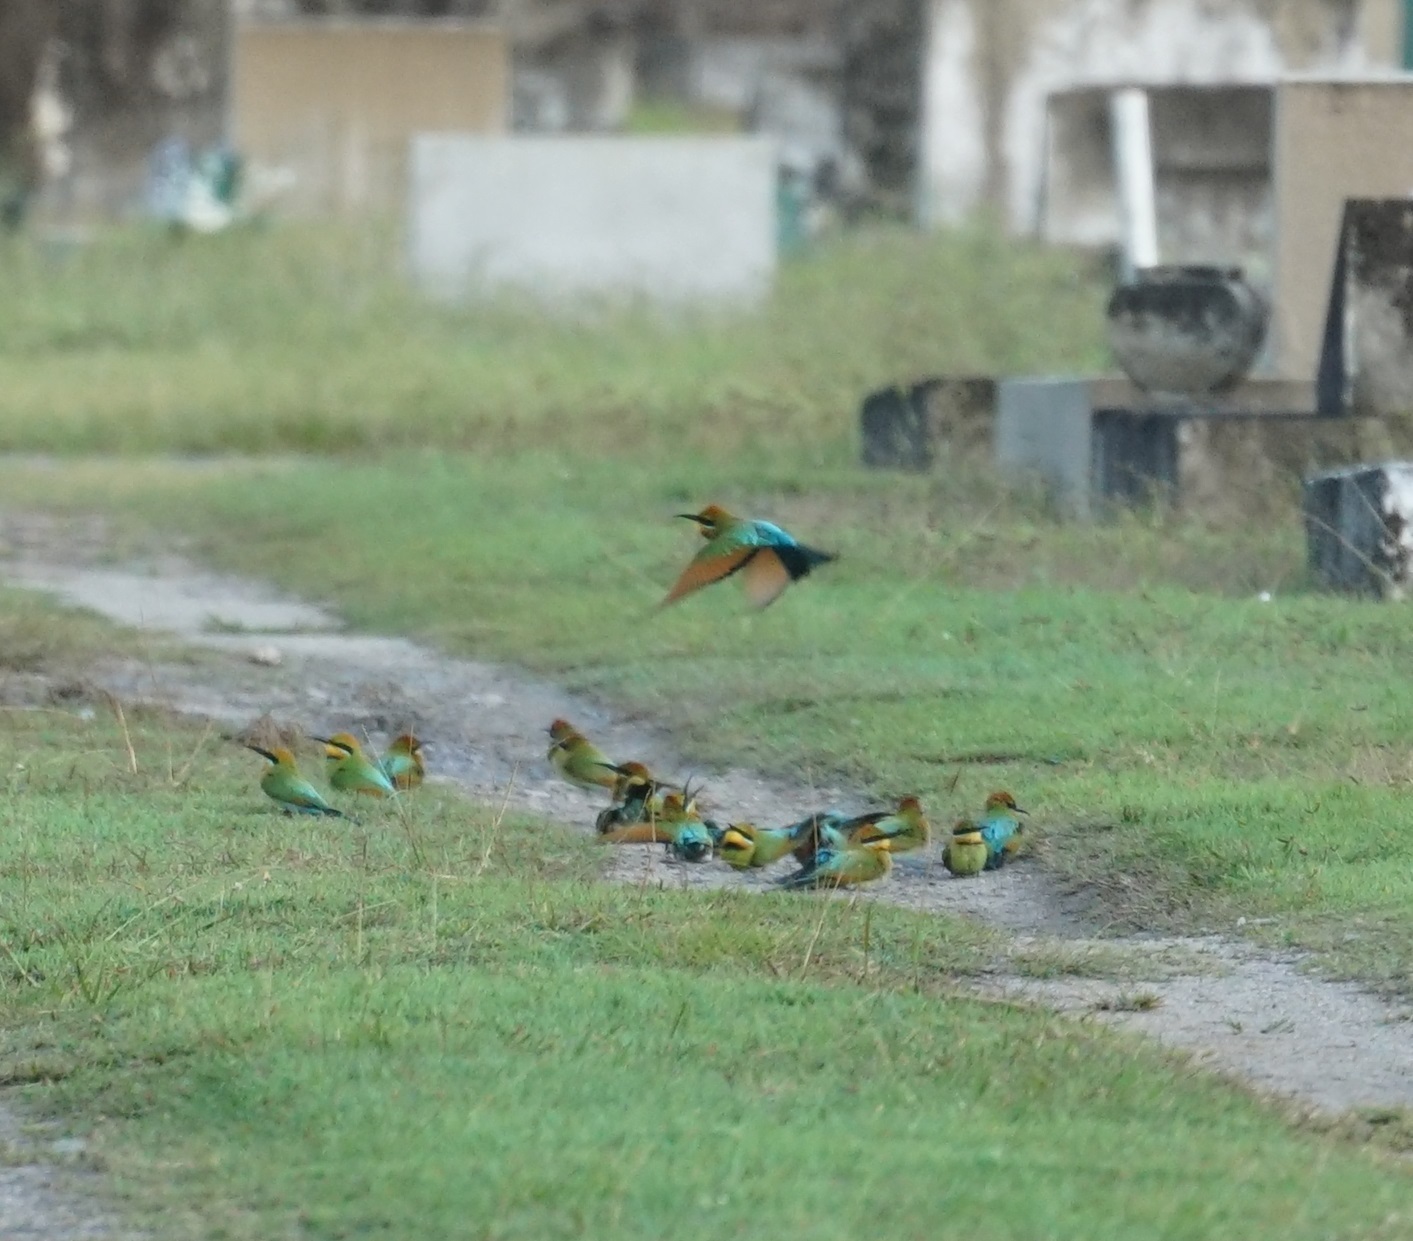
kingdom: Animalia
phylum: Chordata
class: Aves
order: Coraciiformes
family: Meropidae
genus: Merops
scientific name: Merops ornatus
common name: Rainbow bee-eater
